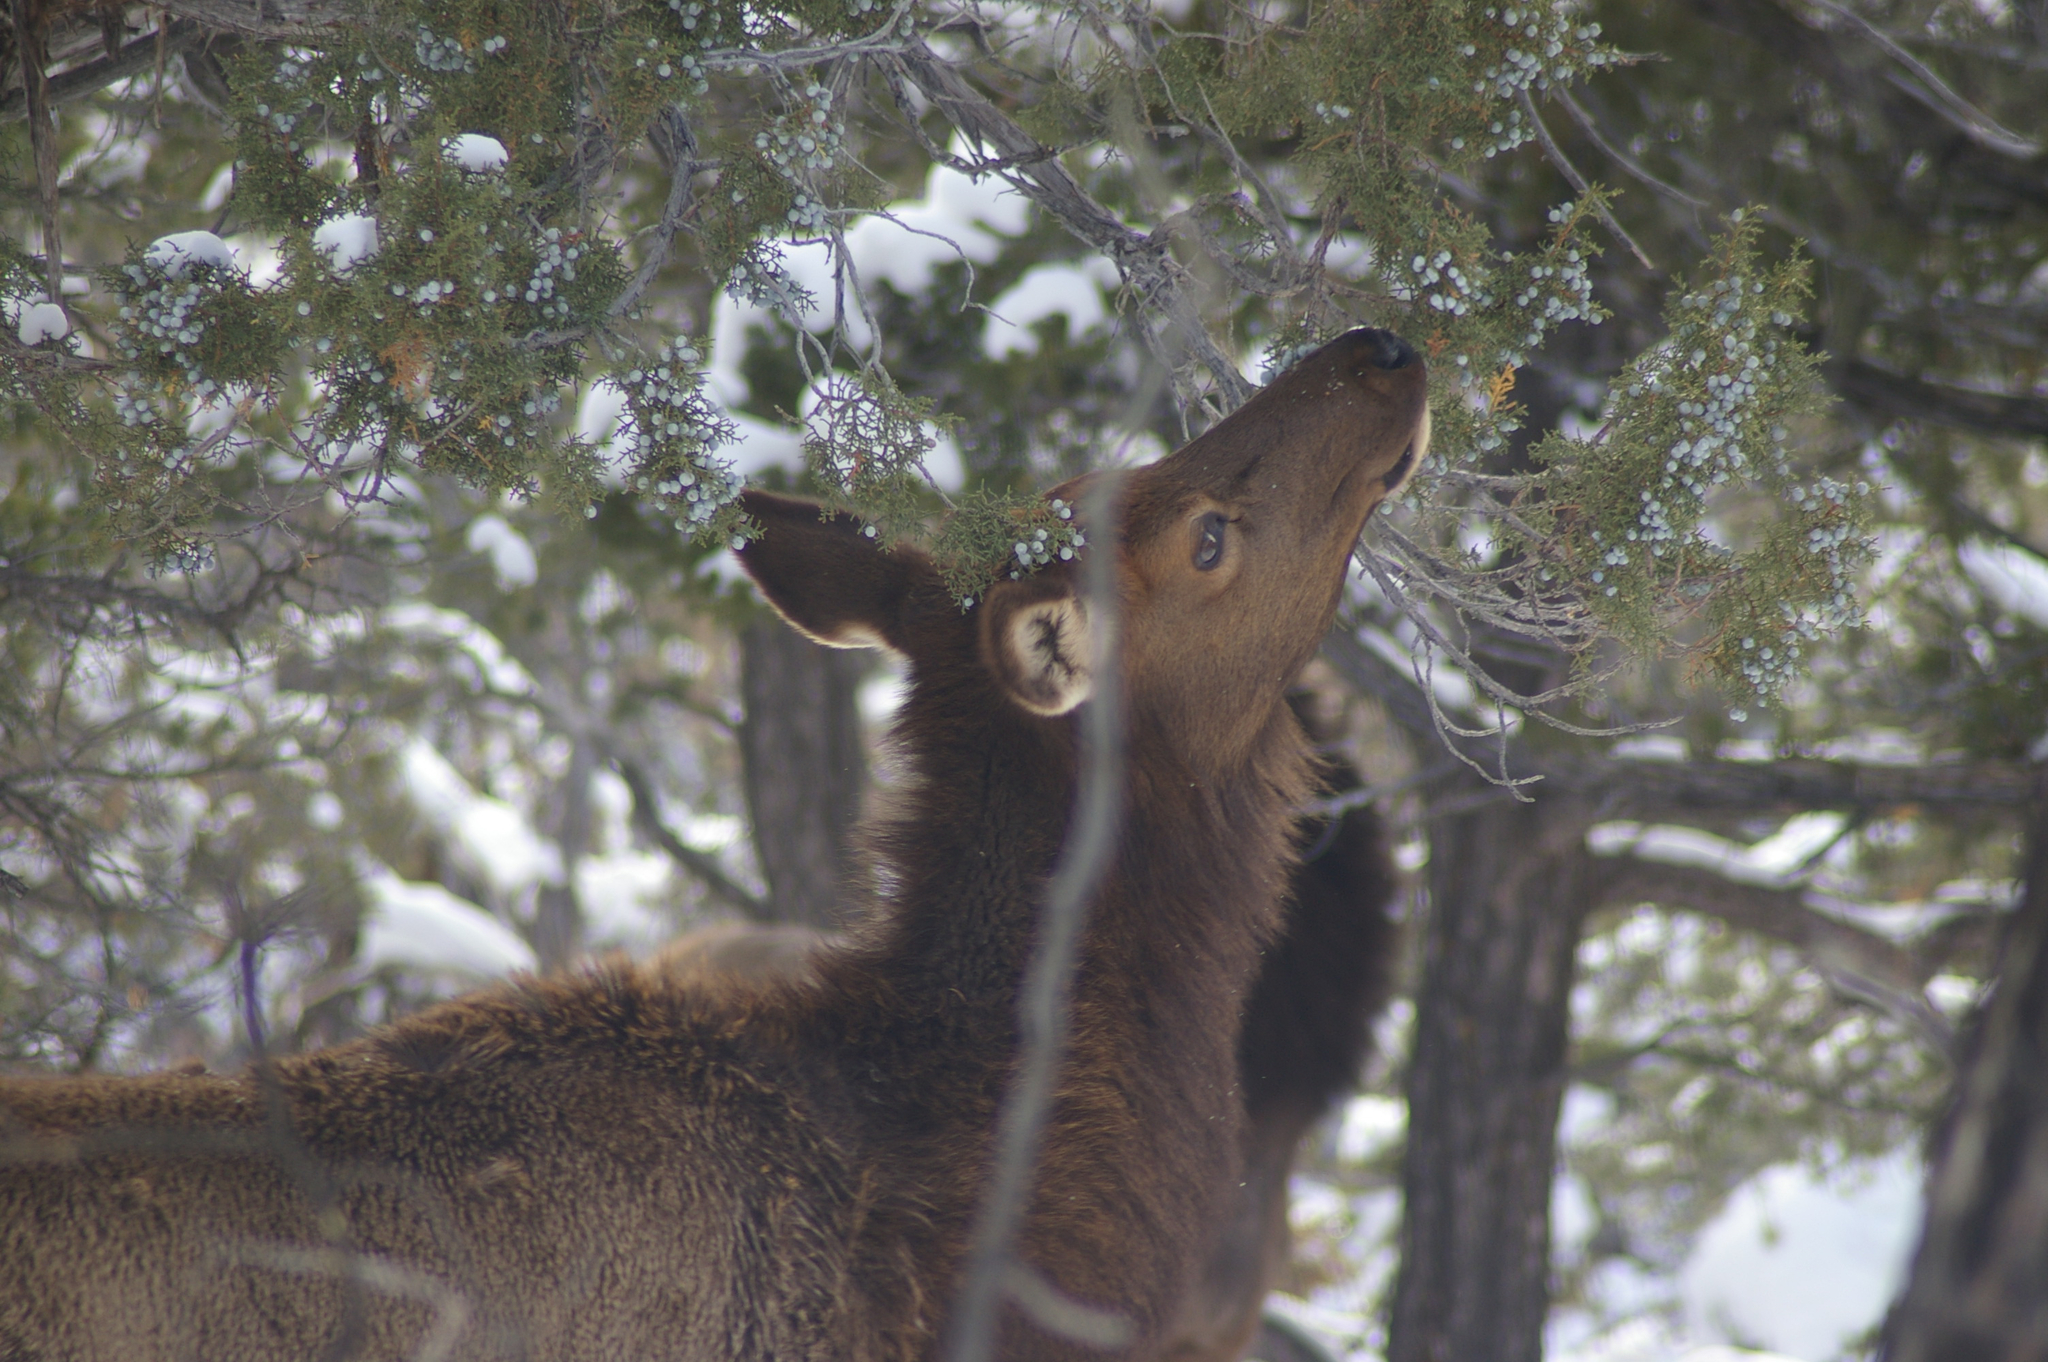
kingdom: Animalia
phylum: Chordata
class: Mammalia
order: Artiodactyla
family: Cervidae
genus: Cervus
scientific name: Cervus elaphus
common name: Red deer
